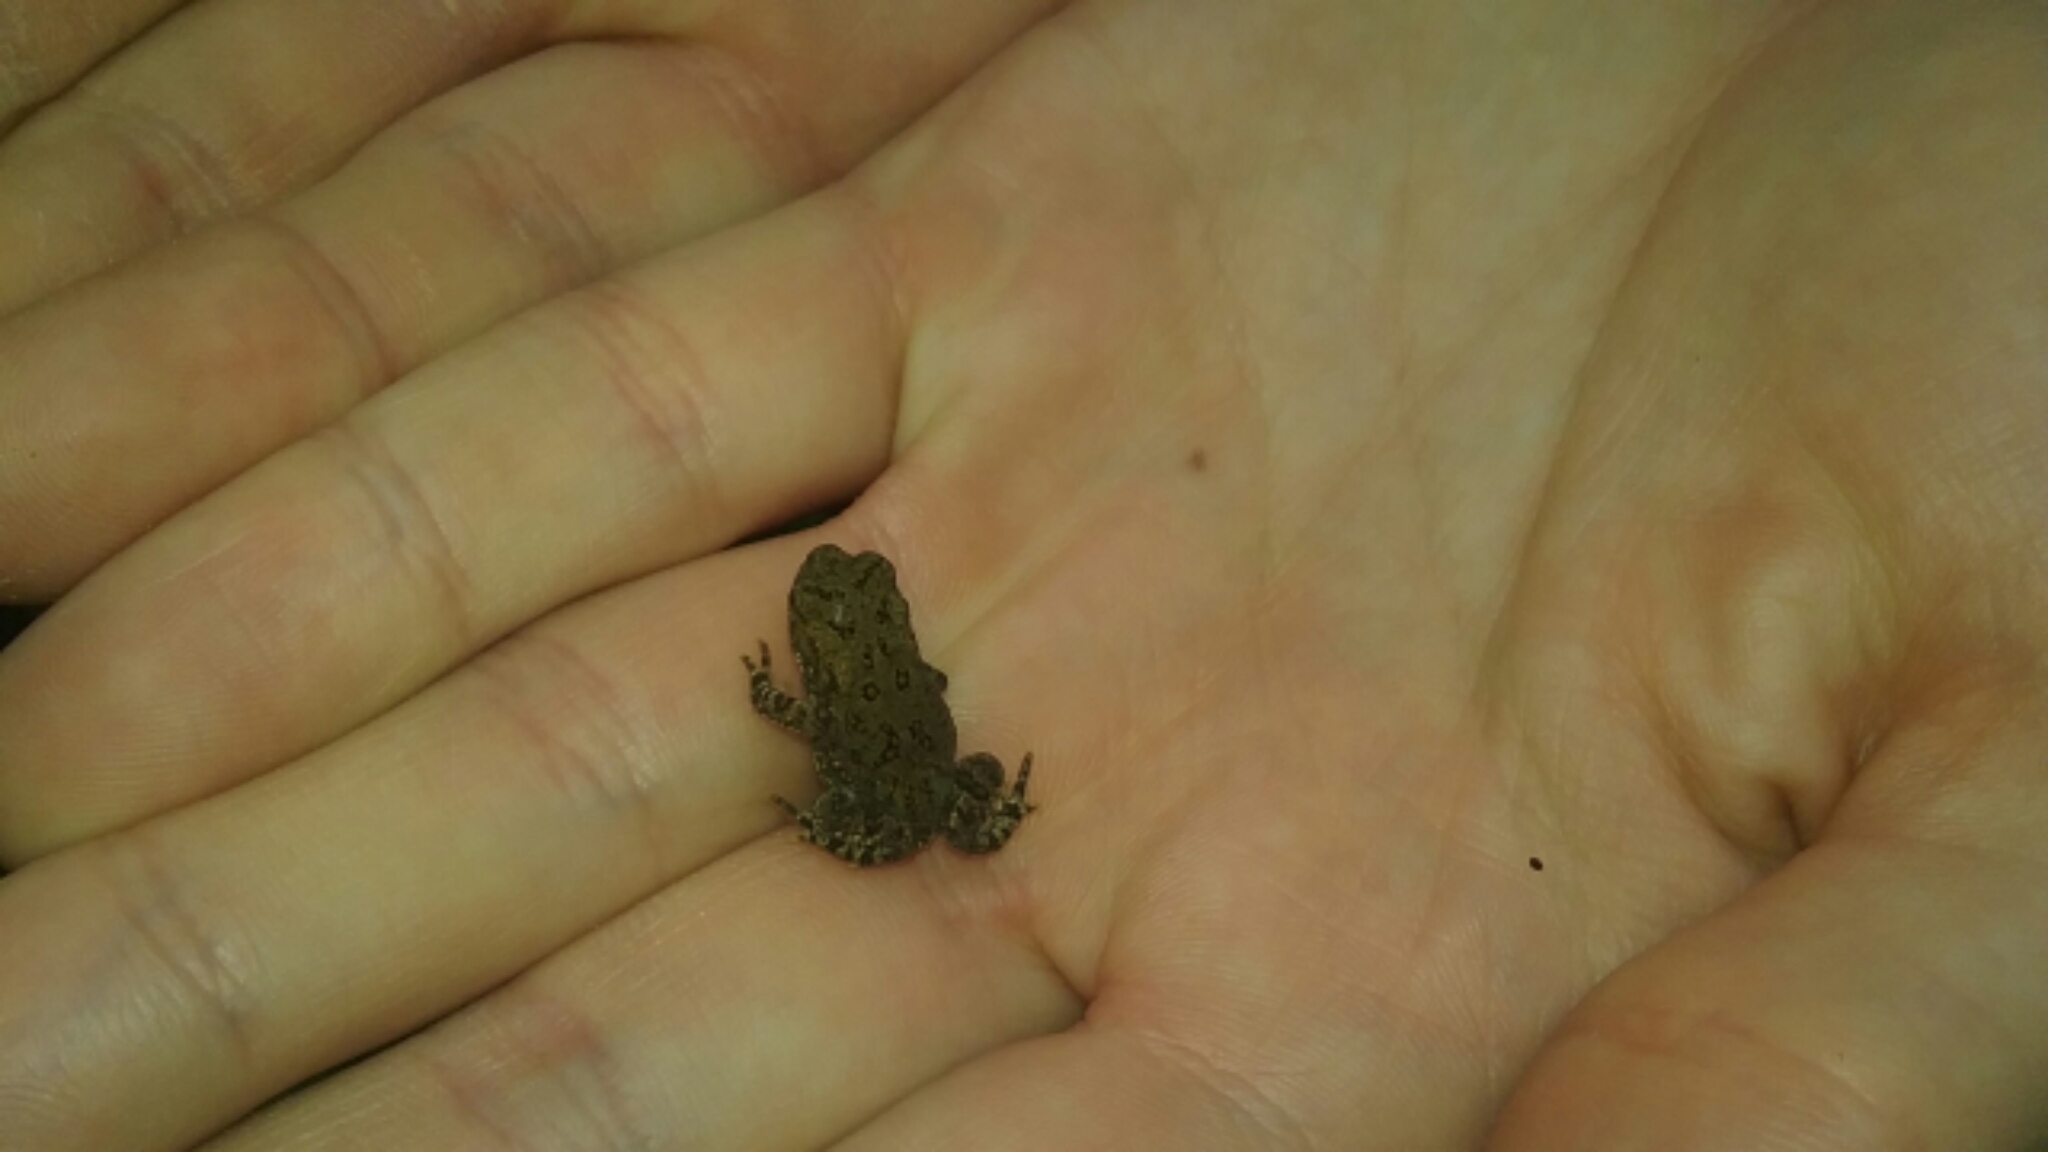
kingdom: Animalia
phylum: Chordata
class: Amphibia
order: Anura
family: Bufonidae
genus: Anaxyrus
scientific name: Anaxyrus americanus
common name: American toad
